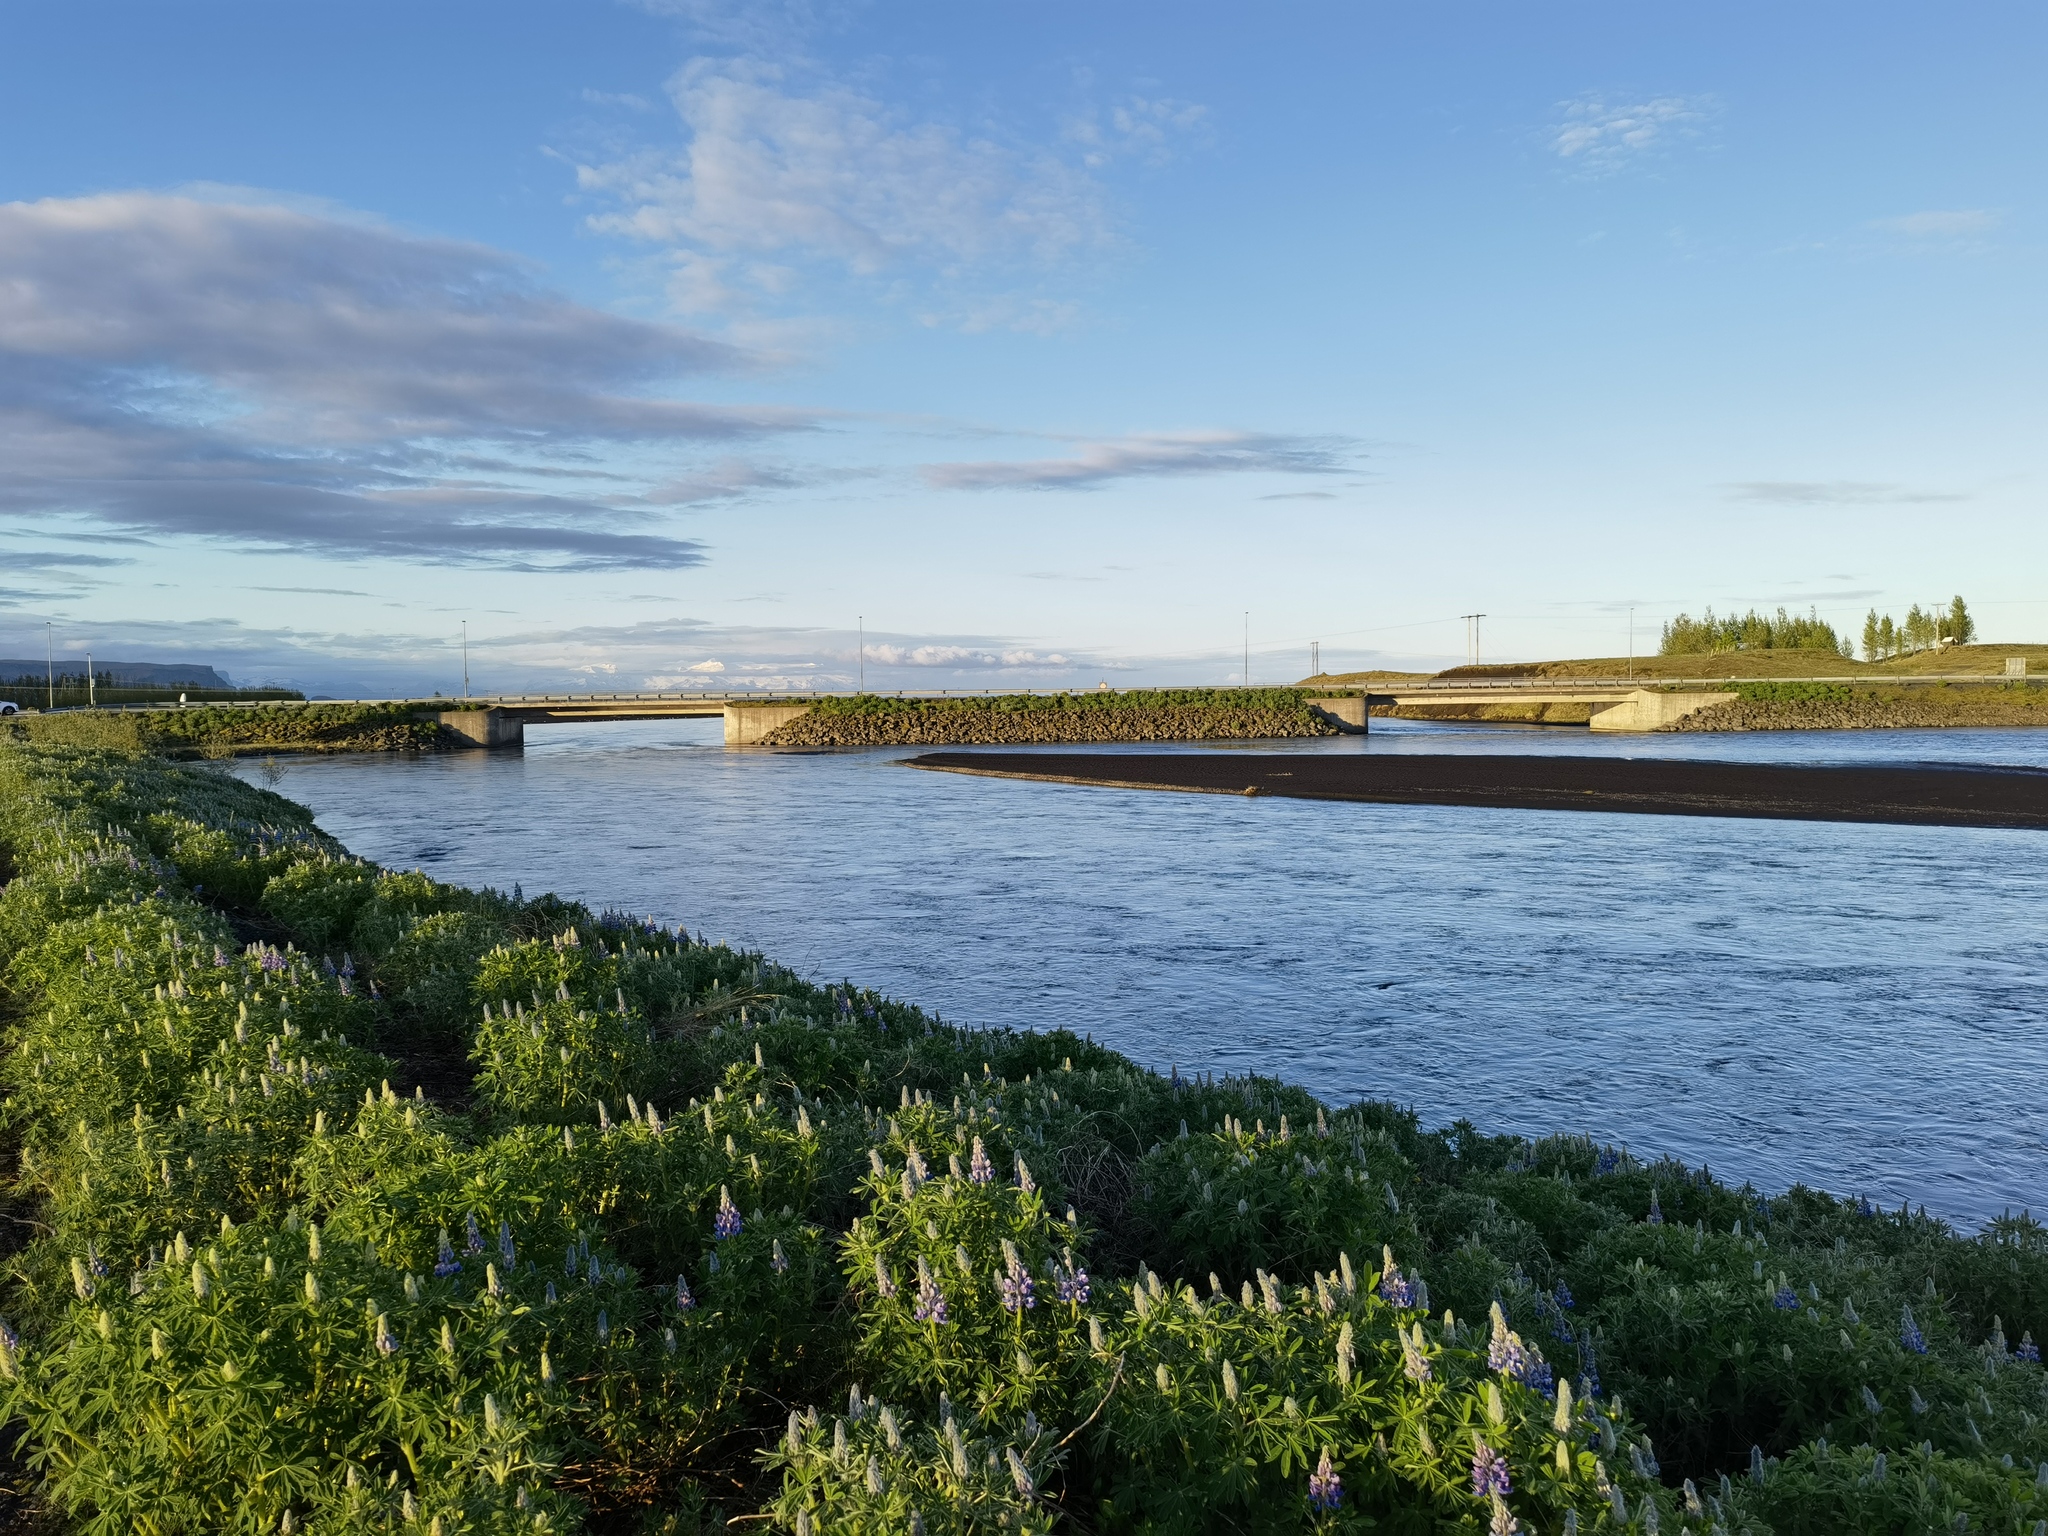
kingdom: Plantae
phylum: Tracheophyta
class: Magnoliopsida
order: Fabales
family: Fabaceae
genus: Lupinus
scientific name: Lupinus nootkatensis
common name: Nootka lupine
